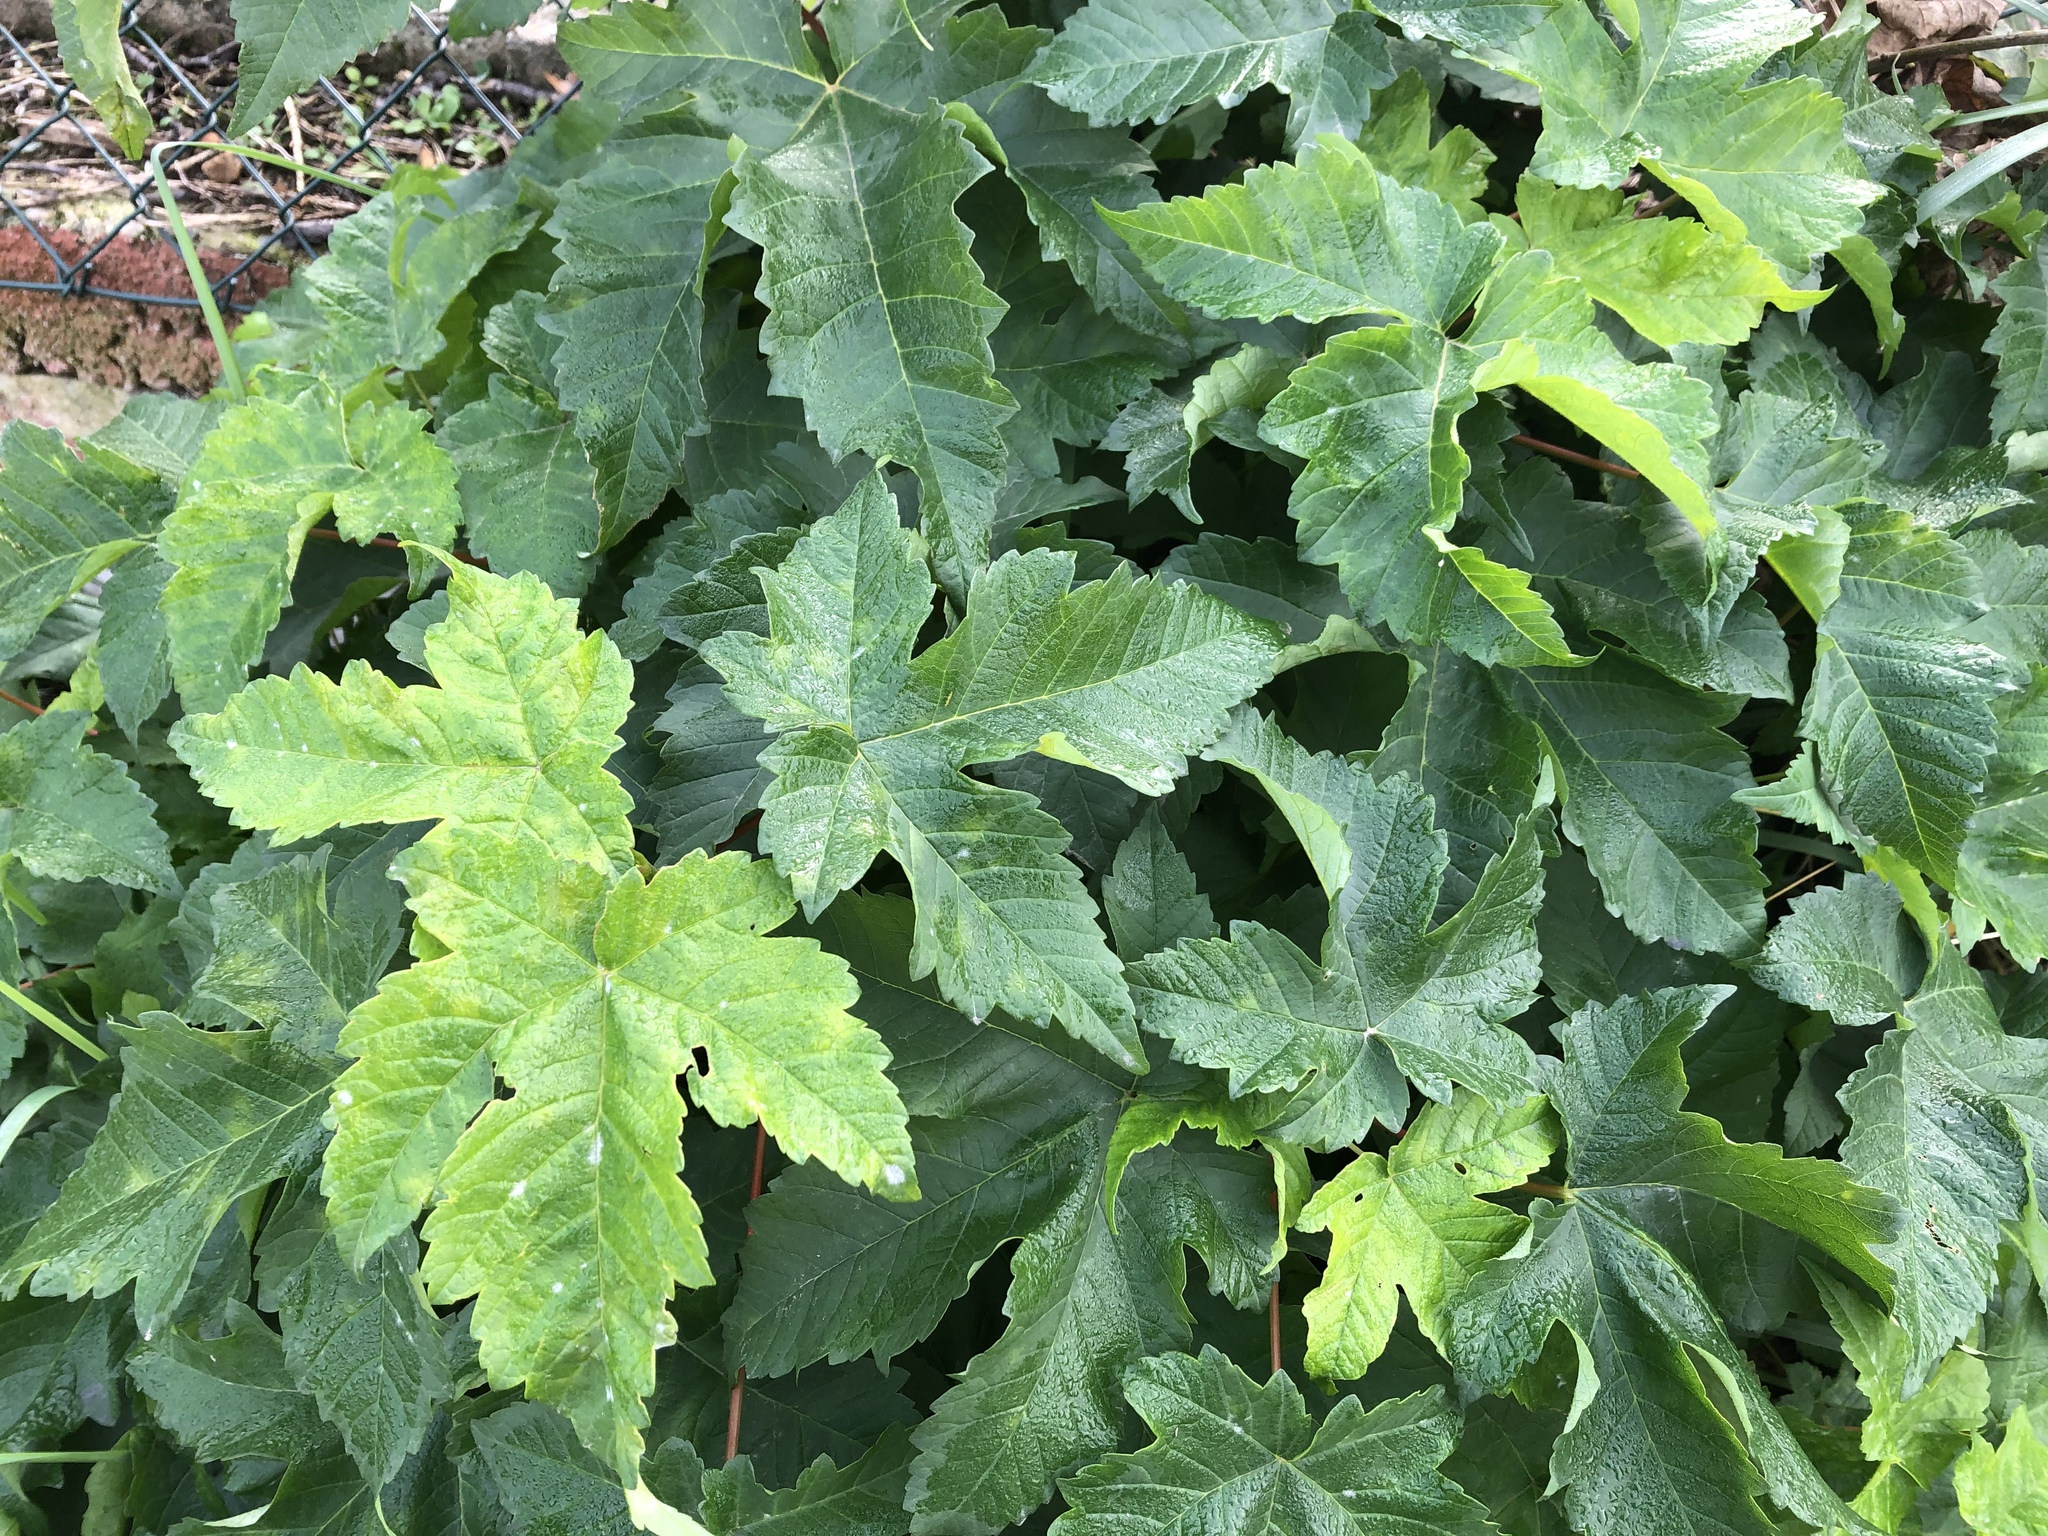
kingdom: Plantae
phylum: Tracheophyta
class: Magnoliopsida
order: Sapindales
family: Sapindaceae
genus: Acer
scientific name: Acer pseudoplatanus
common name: Sycamore
